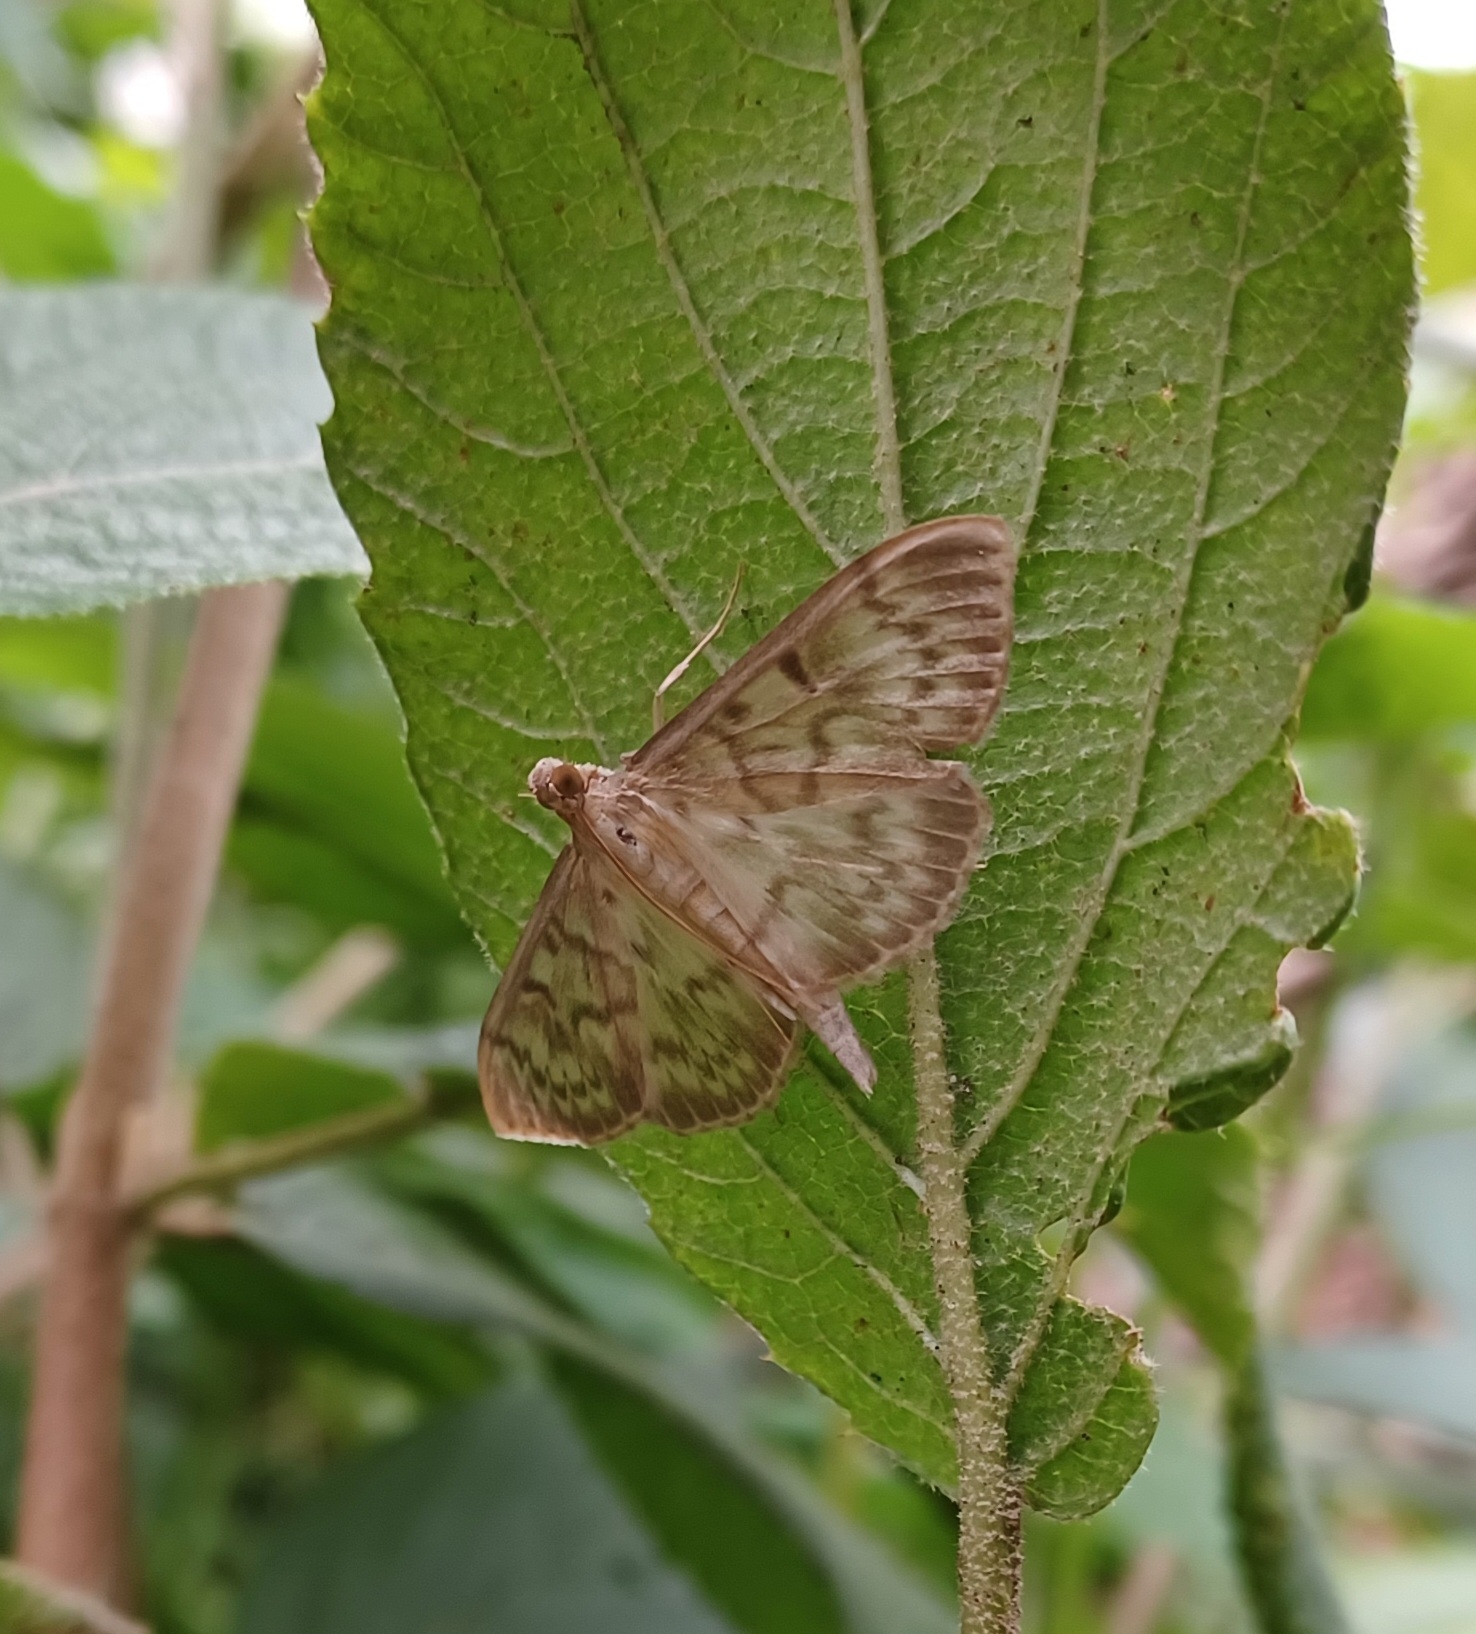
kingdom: Animalia
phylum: Arthropoda
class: Insecta
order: Lepidoptera
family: Crambidae
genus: Patania
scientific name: Patania ruralis
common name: Mother of pearl
